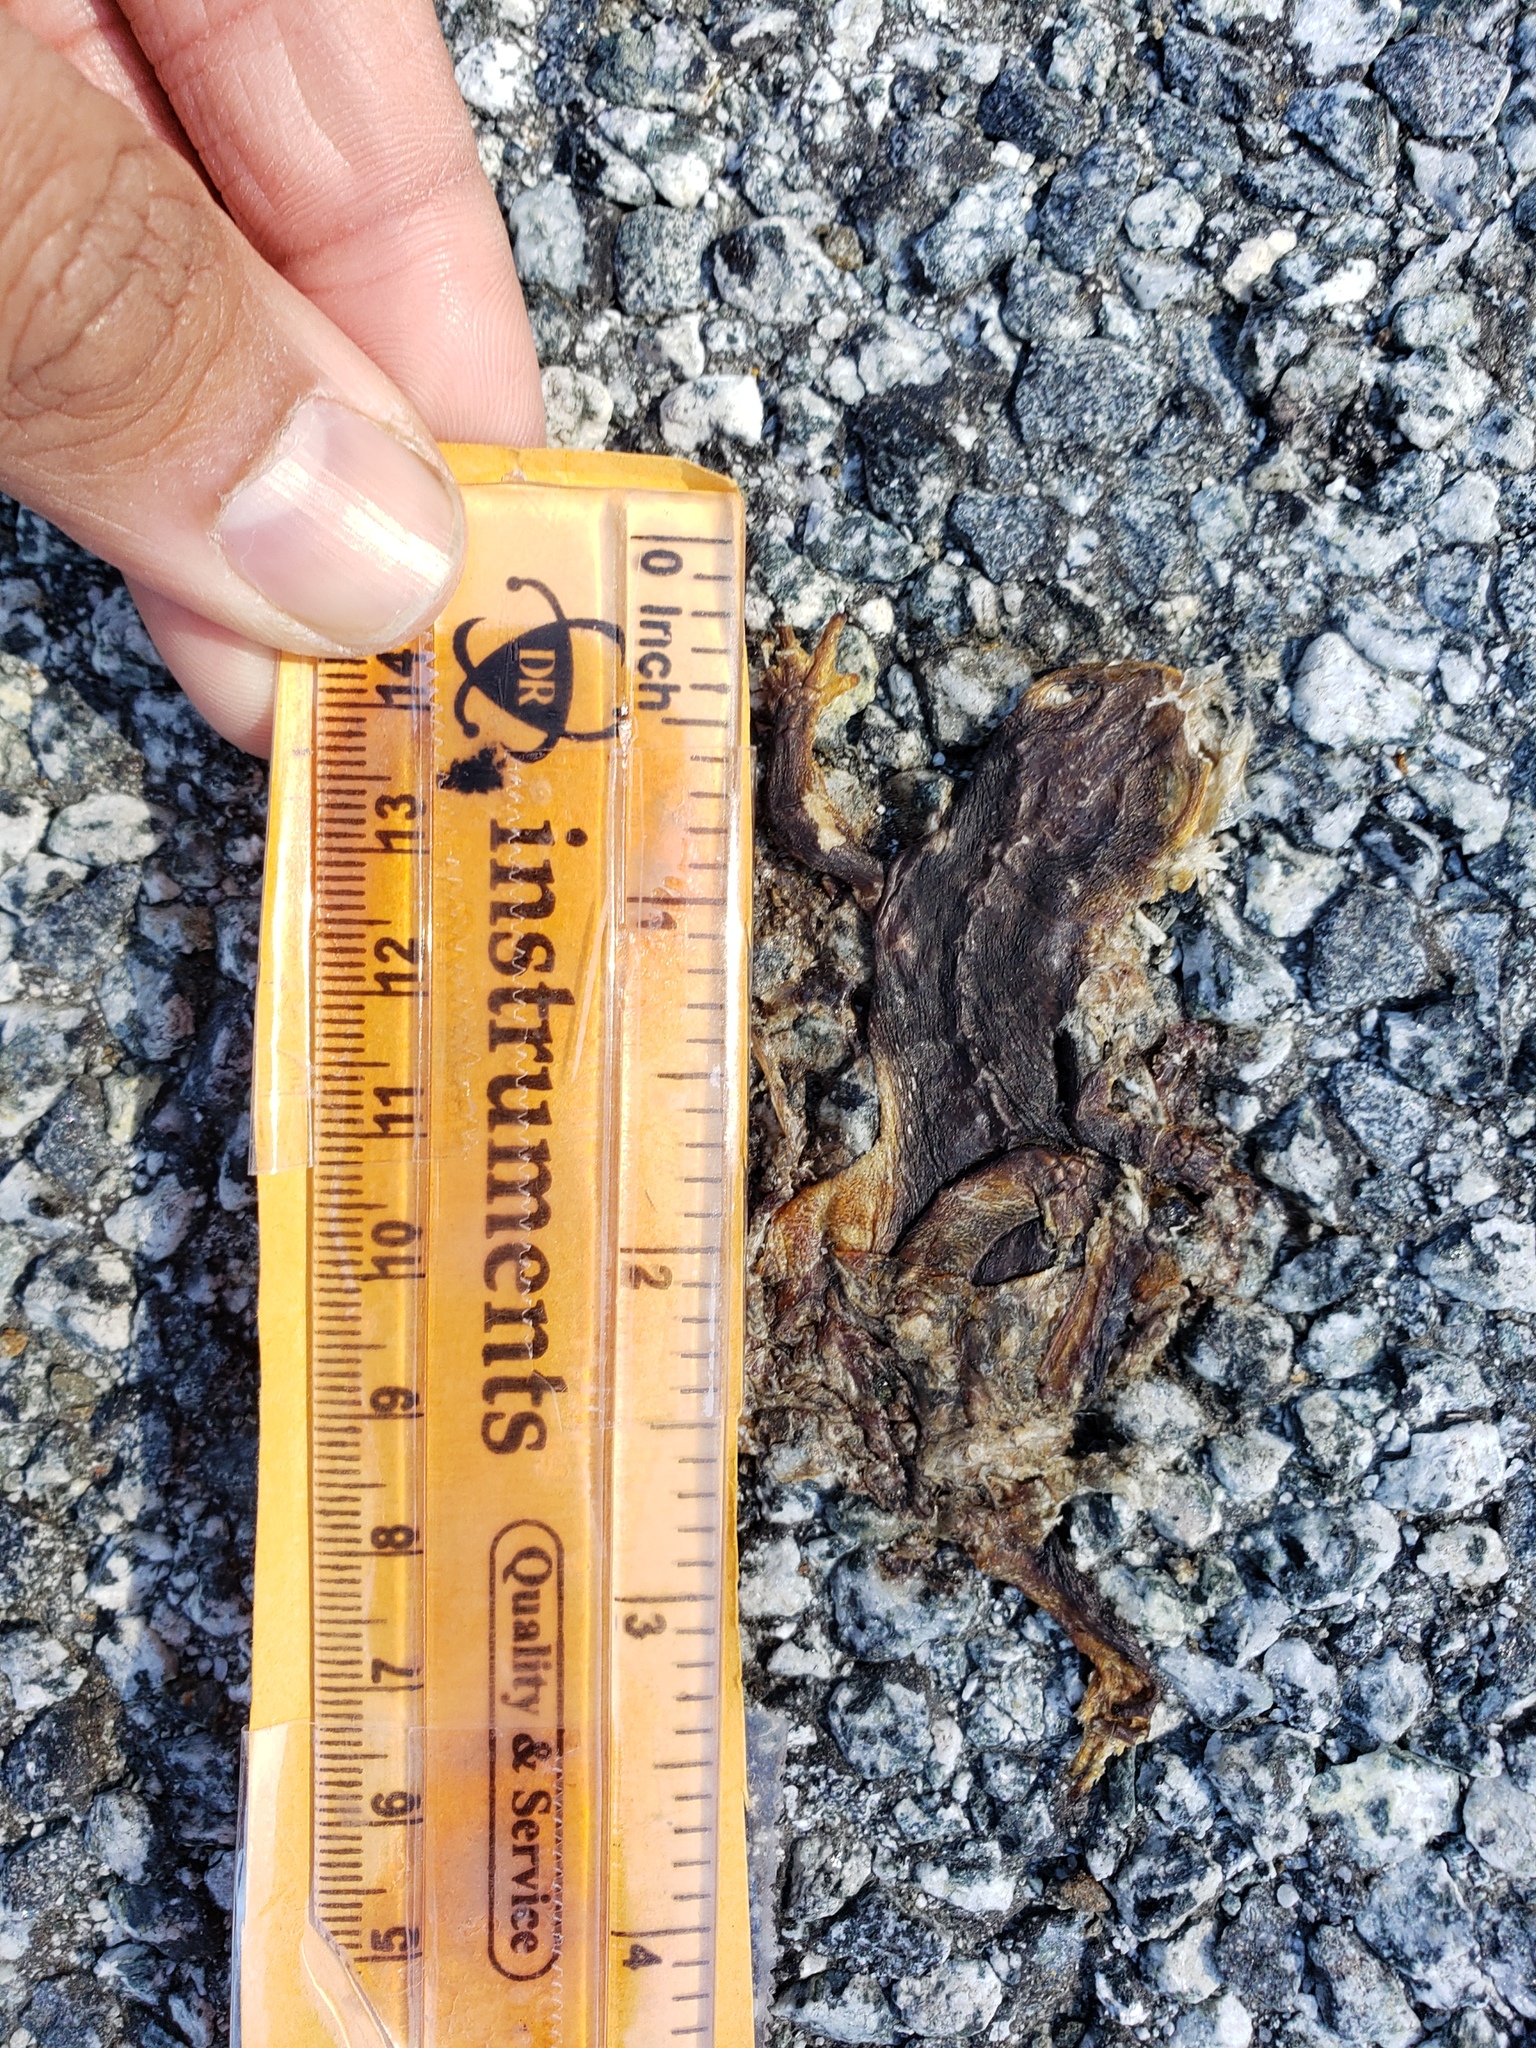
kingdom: Animalia
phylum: Chordata
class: Amphibia
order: Caudata
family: Salamandridae
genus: Taricha
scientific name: Taricha
